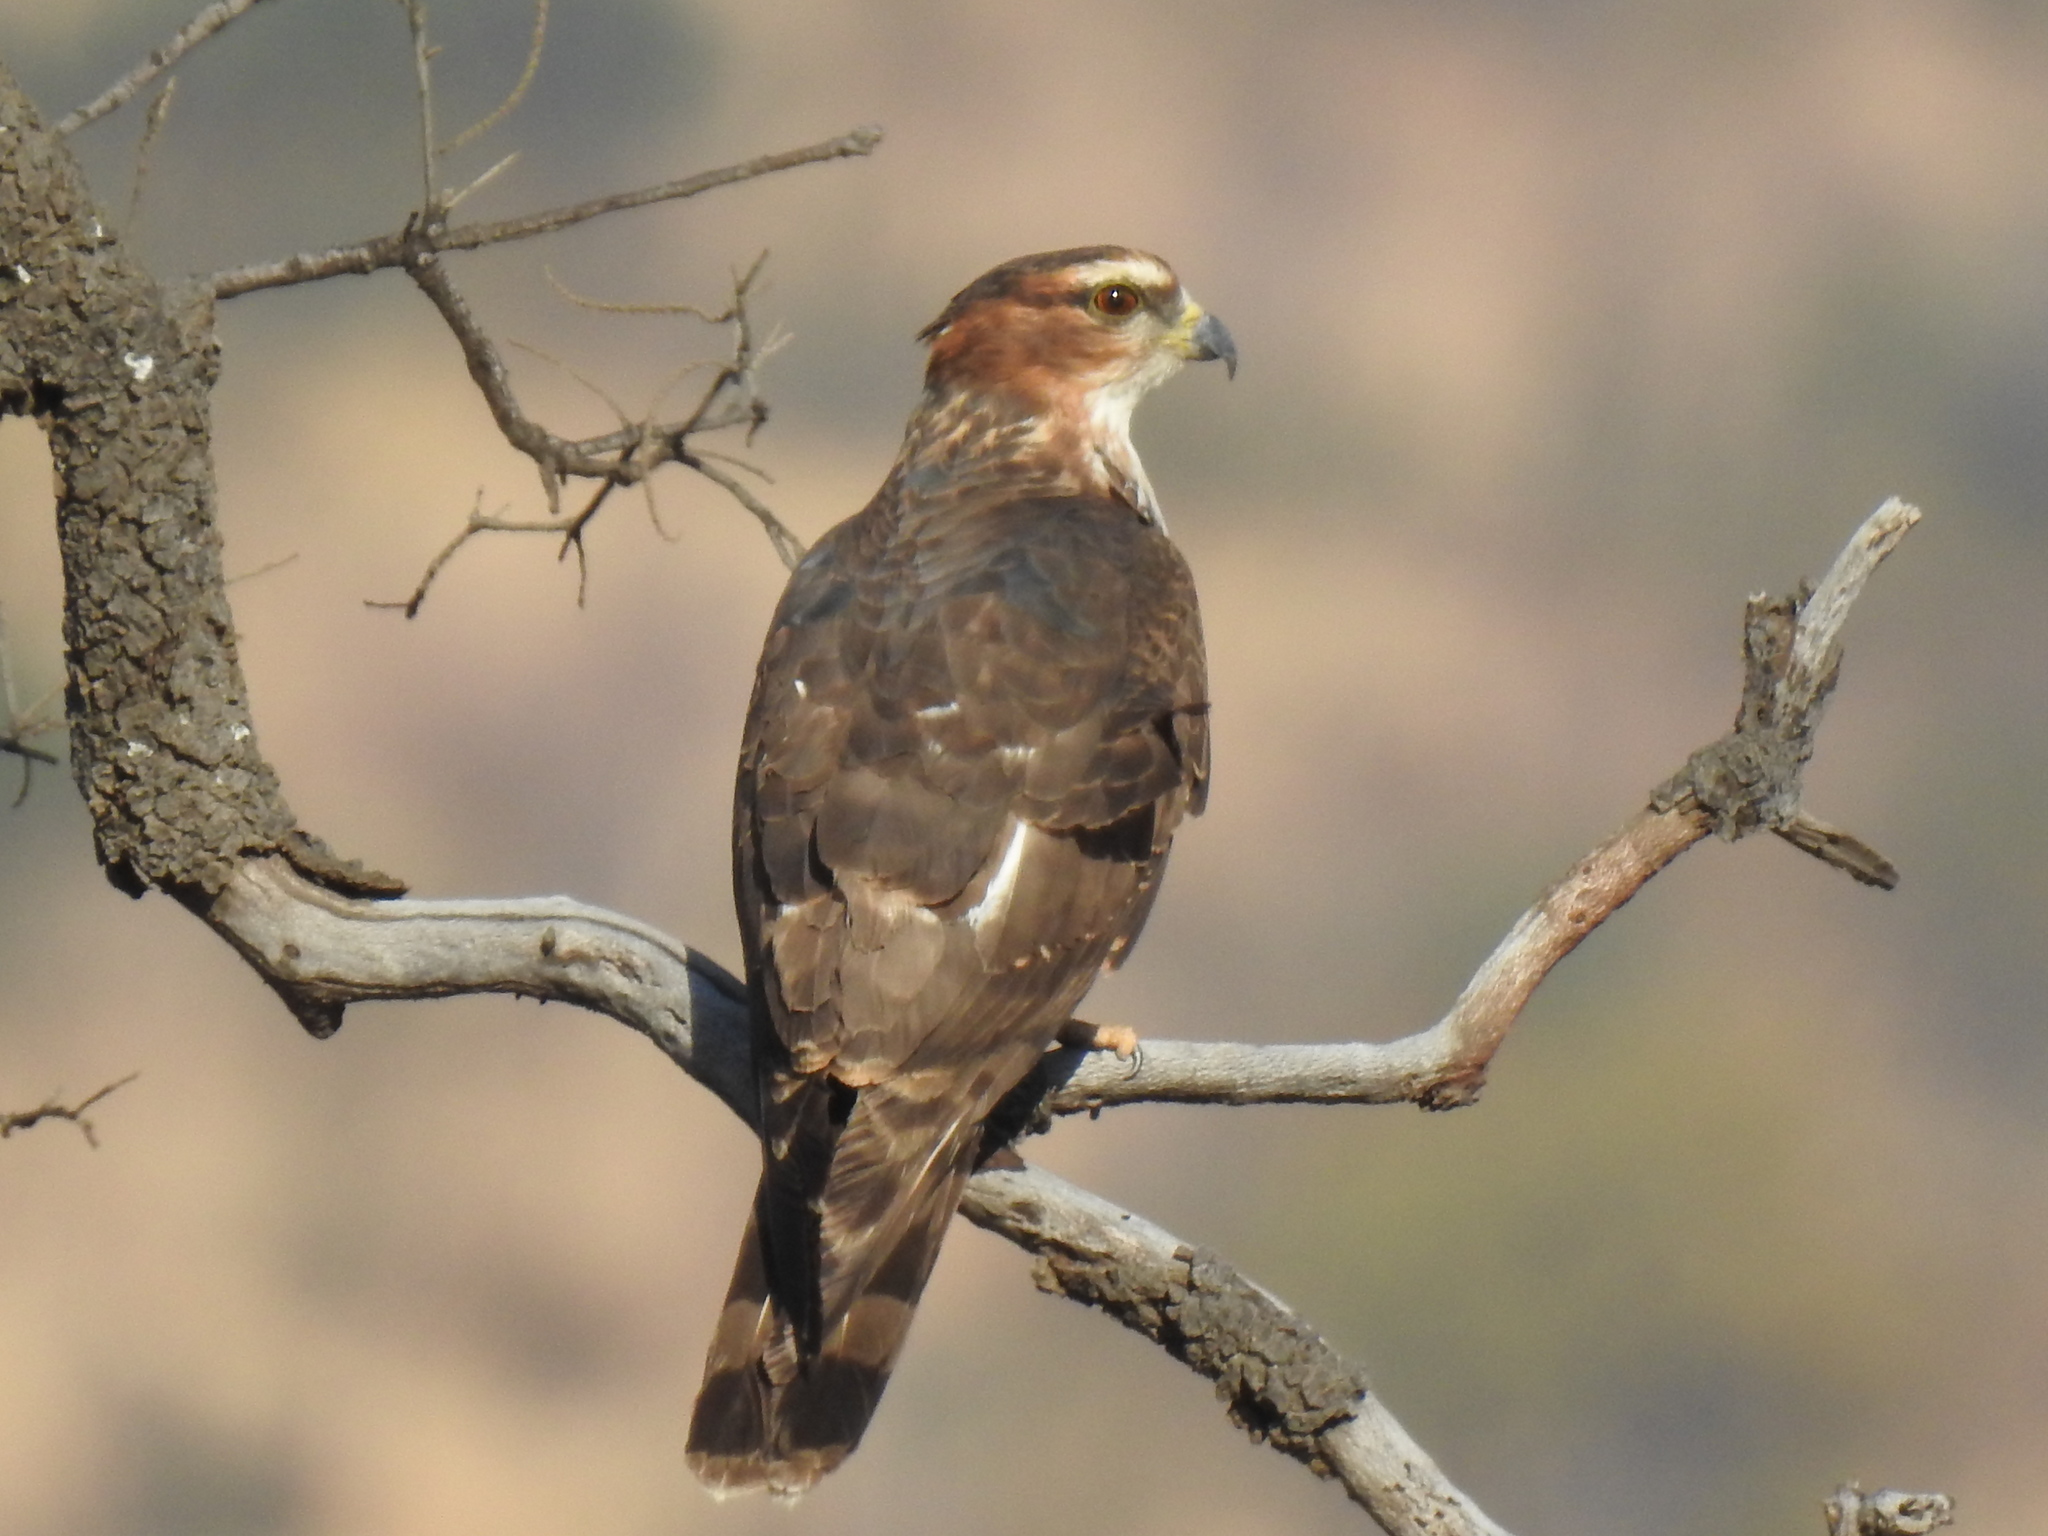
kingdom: Animalia
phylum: Chordata
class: Aves
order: Accipitriformes
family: Accipitridae
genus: Aviceda
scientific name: Aviceda cuculoides
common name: African cuckoo-hawk
